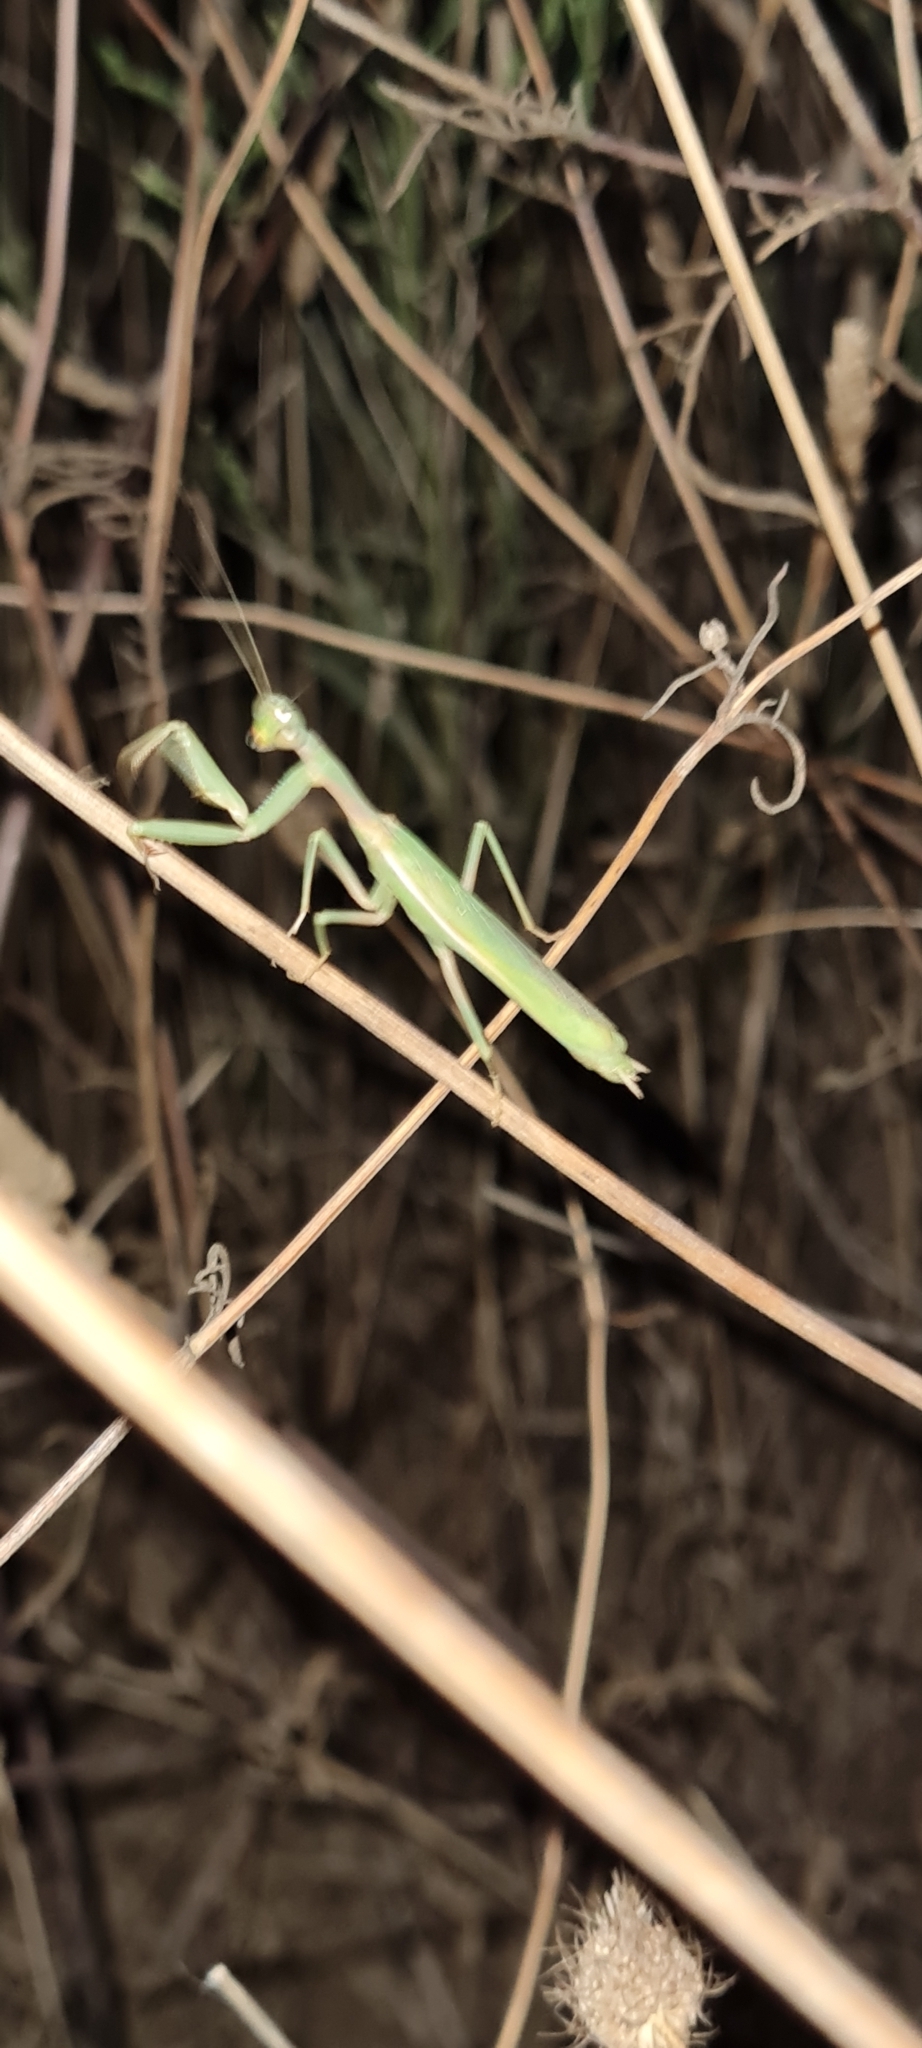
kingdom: Animalia
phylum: Arthropoda
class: Insecta
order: Mantodea
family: Eremiaphilidae
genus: Iris
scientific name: Iris oratoria
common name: Mediterranean mantis
